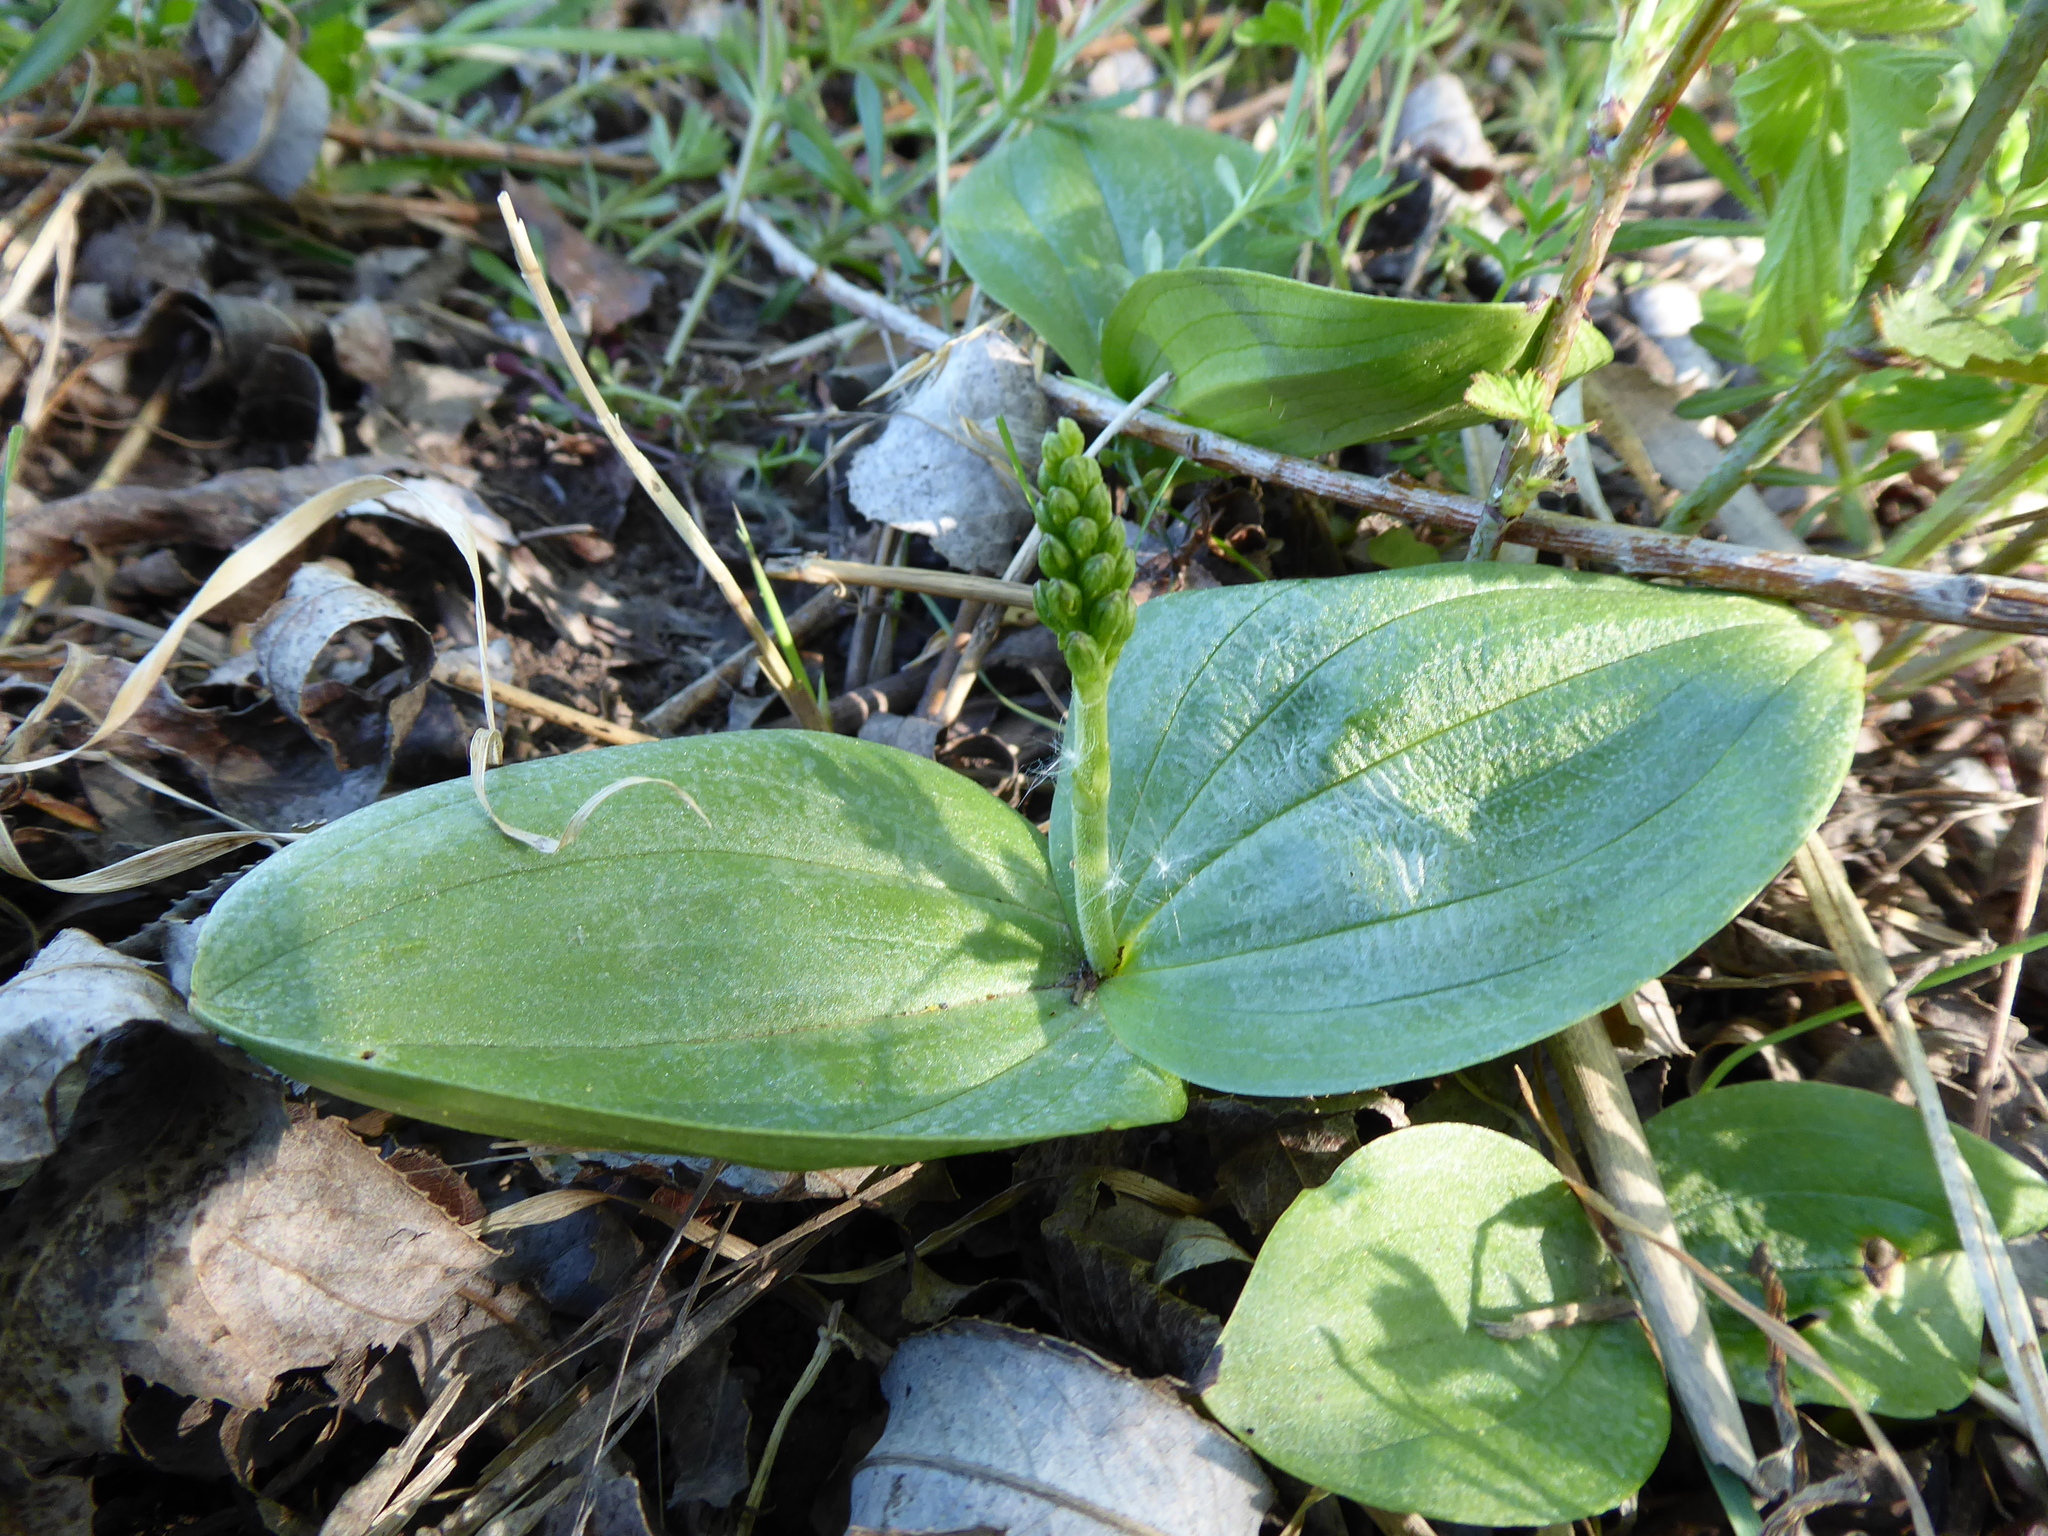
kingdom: Plantae
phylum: Tracheophyta
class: Liliopsida
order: Asparagales
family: Orchidaceae
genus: Neottia
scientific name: Neottia ovata
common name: Common twayblade
